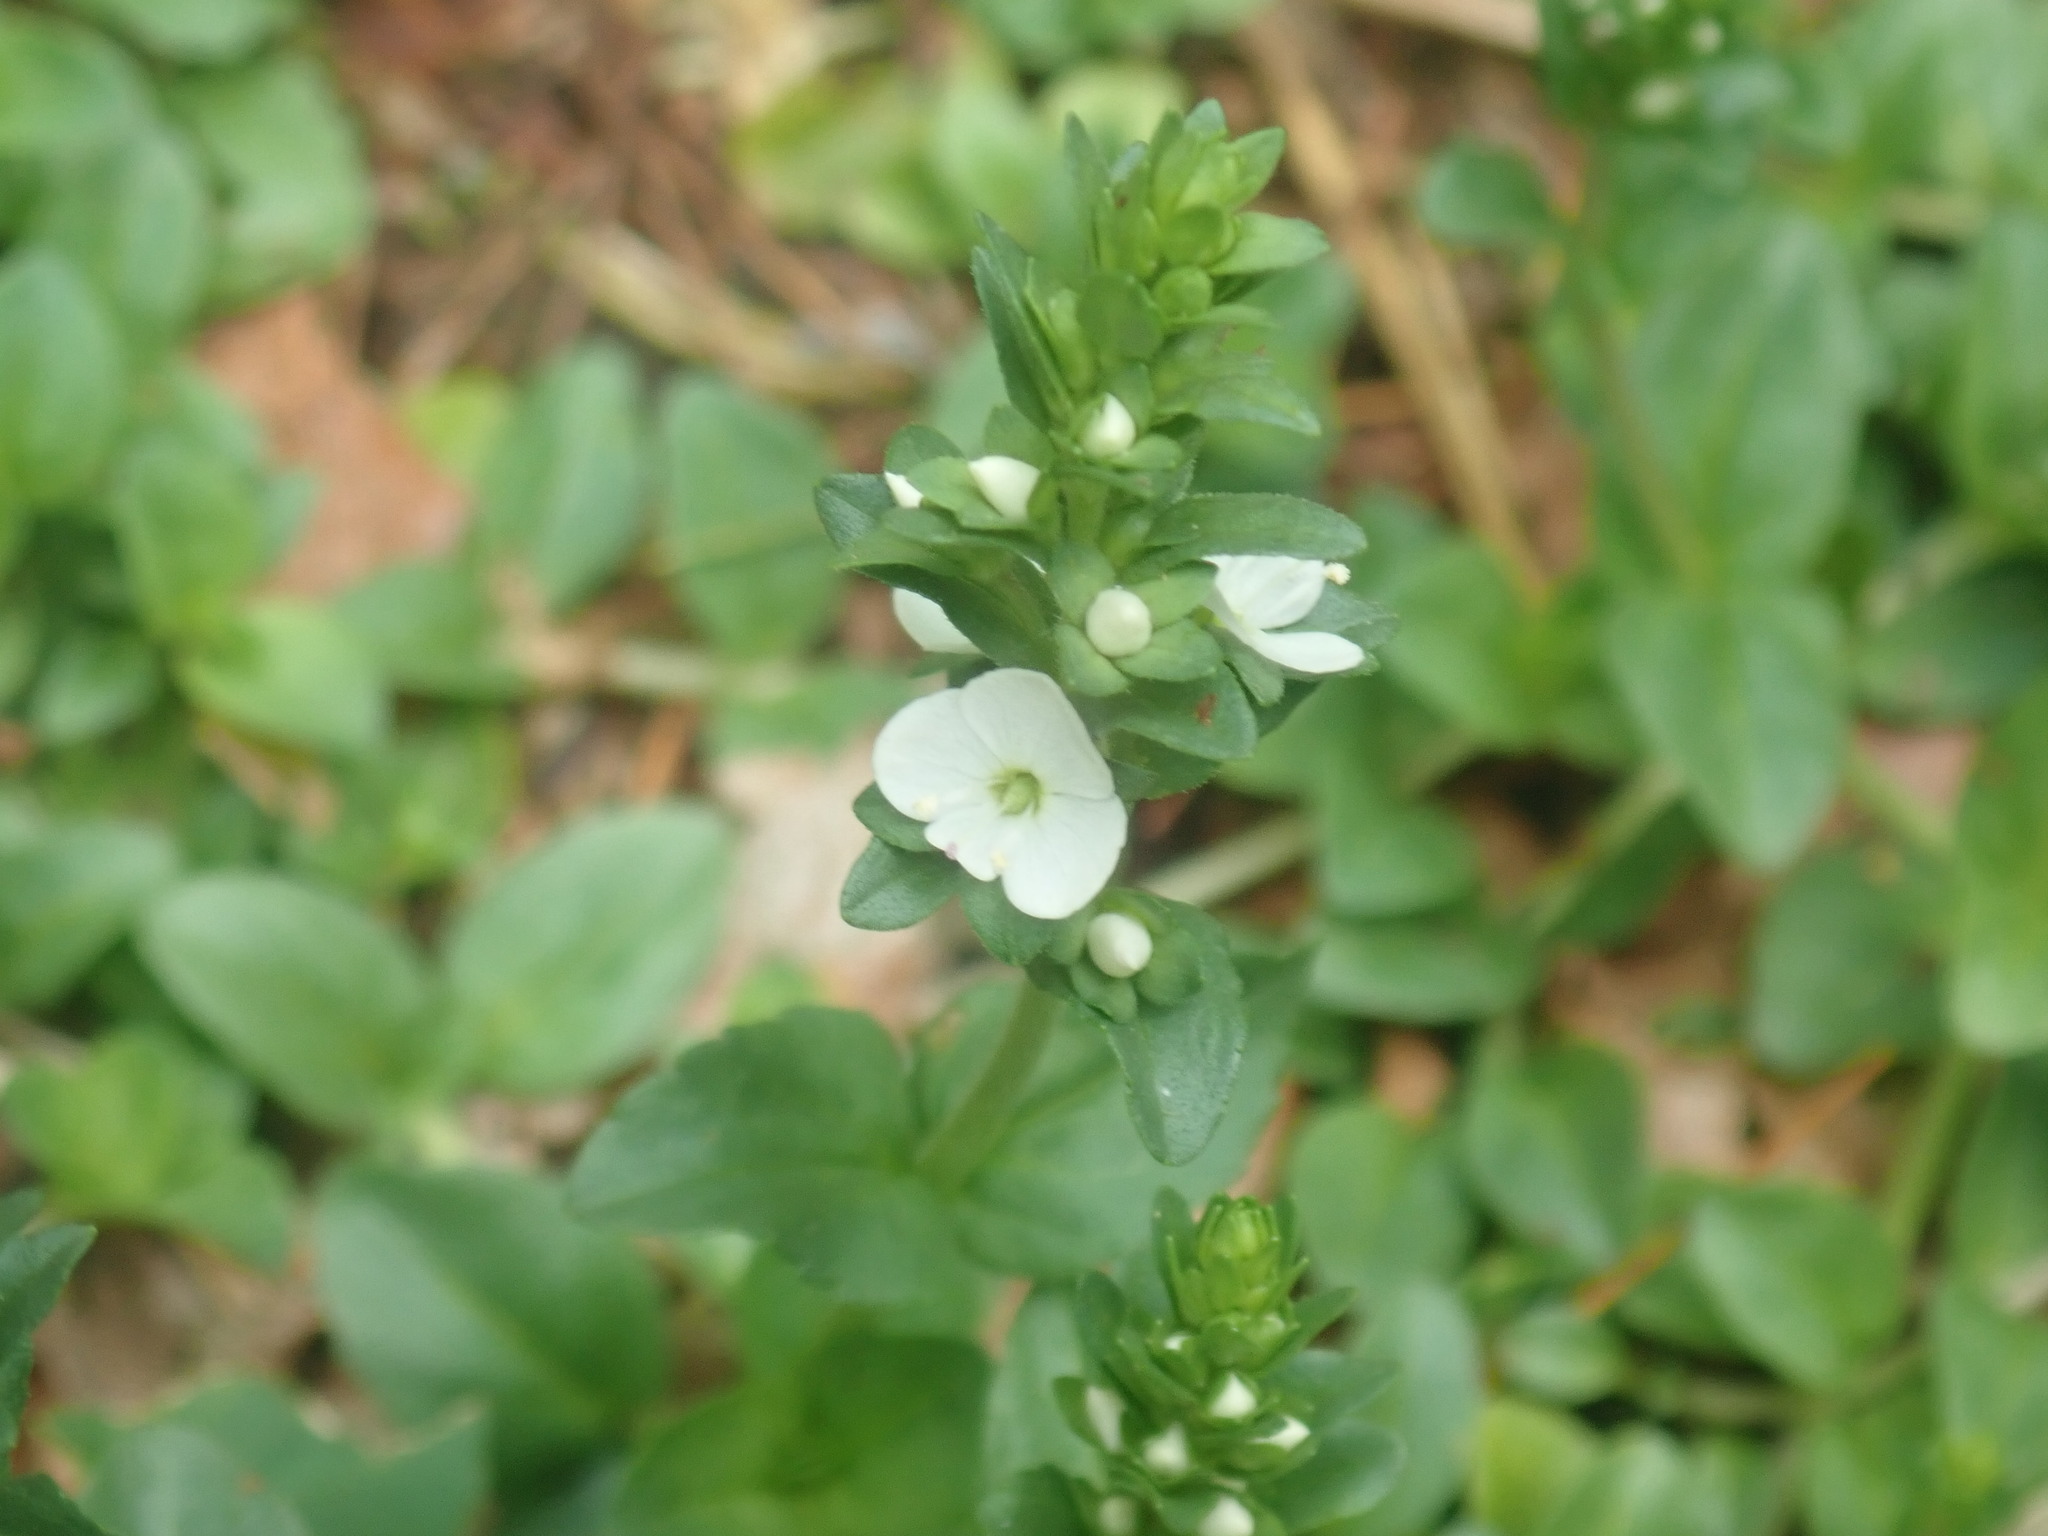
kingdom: Plantae
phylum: Tracheophyta
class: Magnoliopsida
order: Lamiales
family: Plantaginaceae
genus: Veronica
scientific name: Veronica serpyllifolia
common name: Thyme-leaved speedwell
